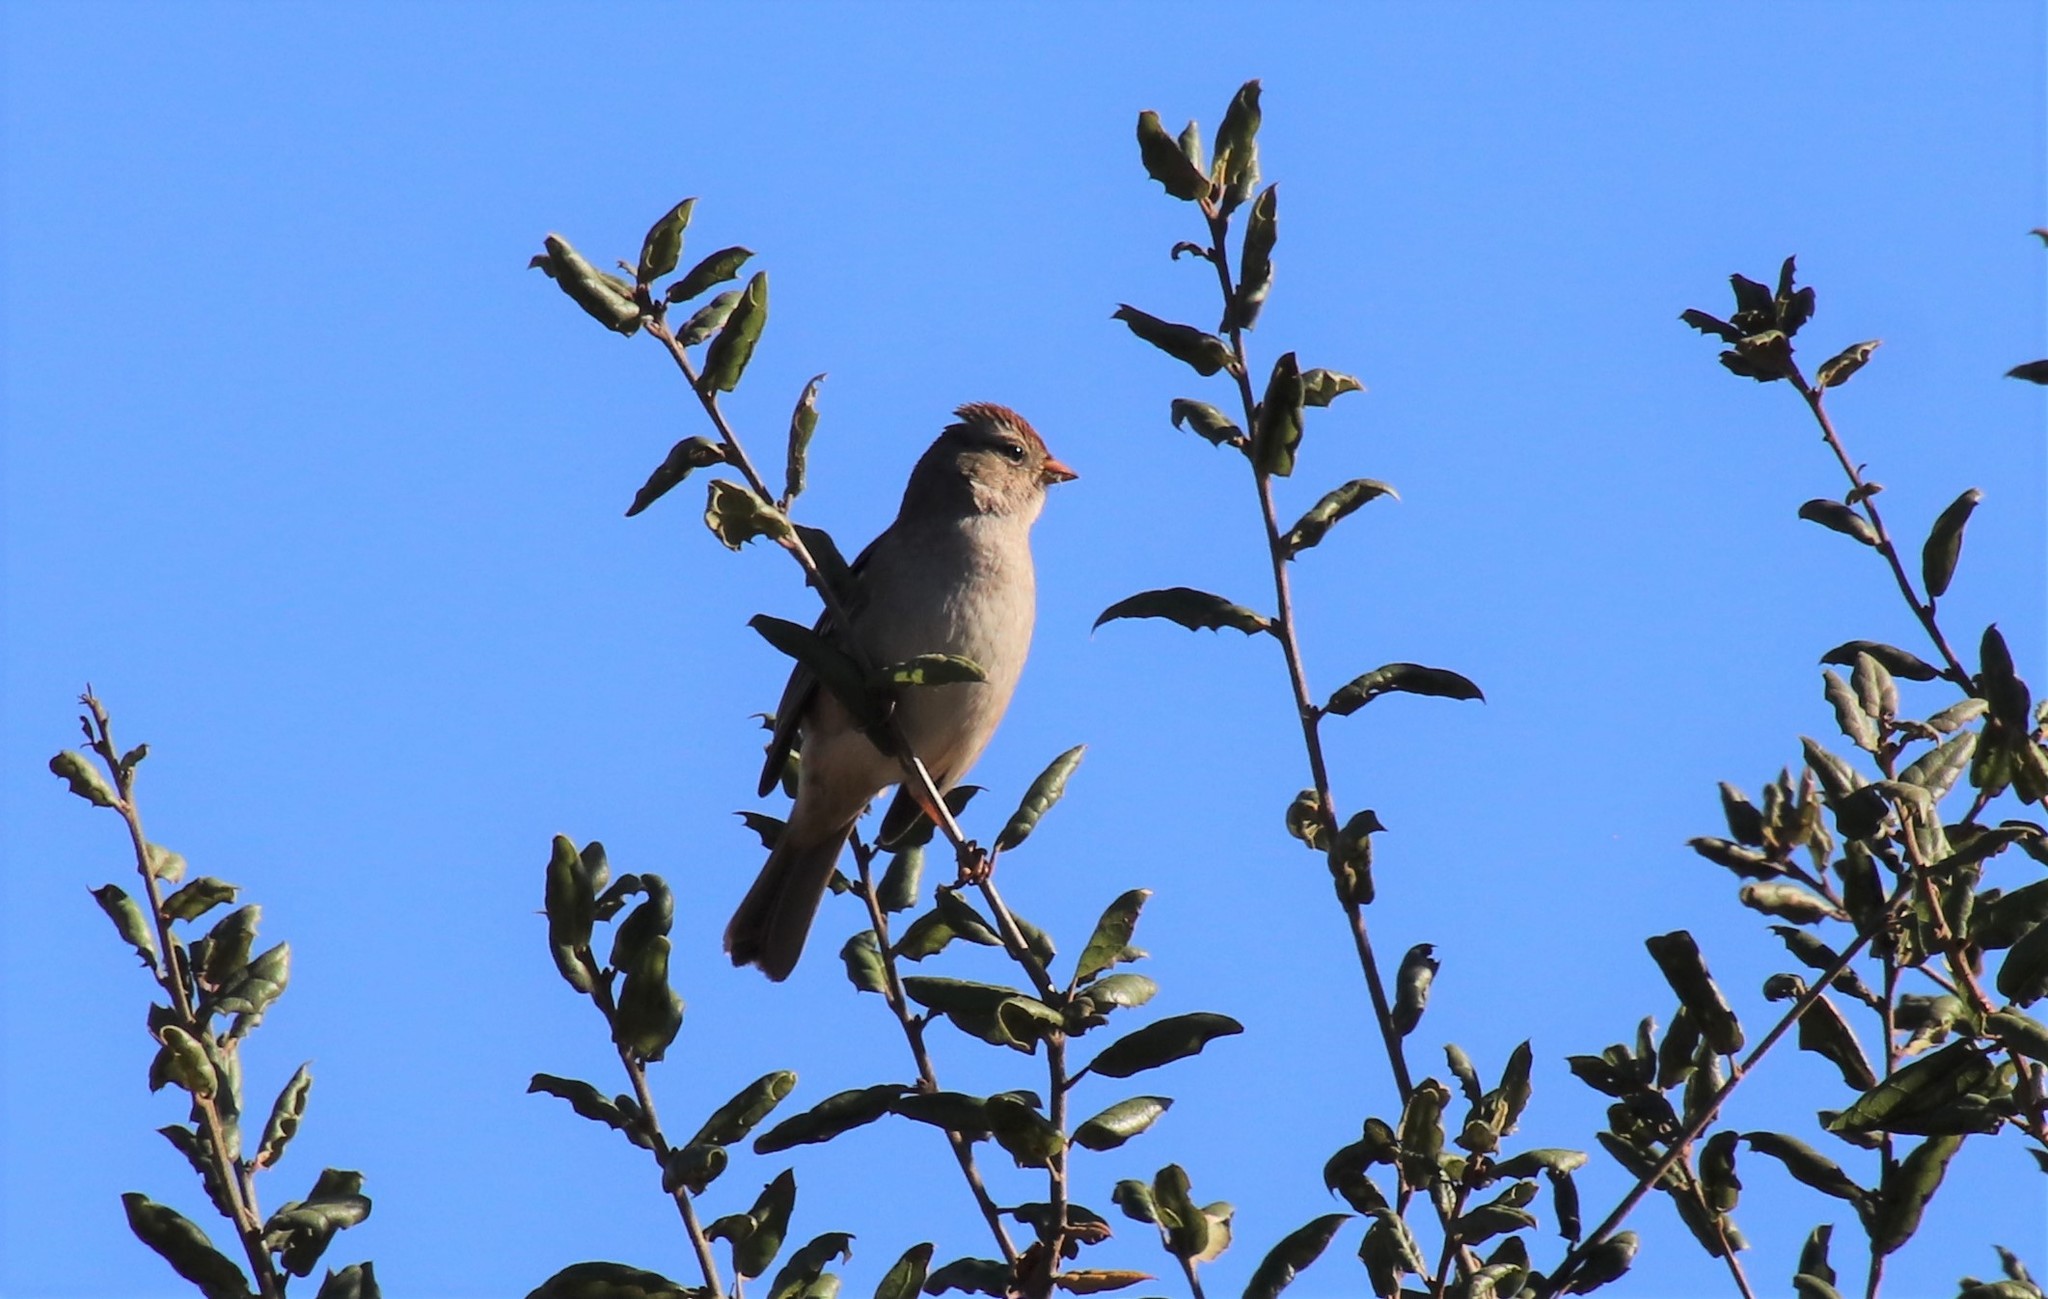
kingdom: Animalia
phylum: Chordata
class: Aves
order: Passeriformes
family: Passerellidae
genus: Zonotrichia
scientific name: Zonotrichia leucophrys
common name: White-crowned sparrow
